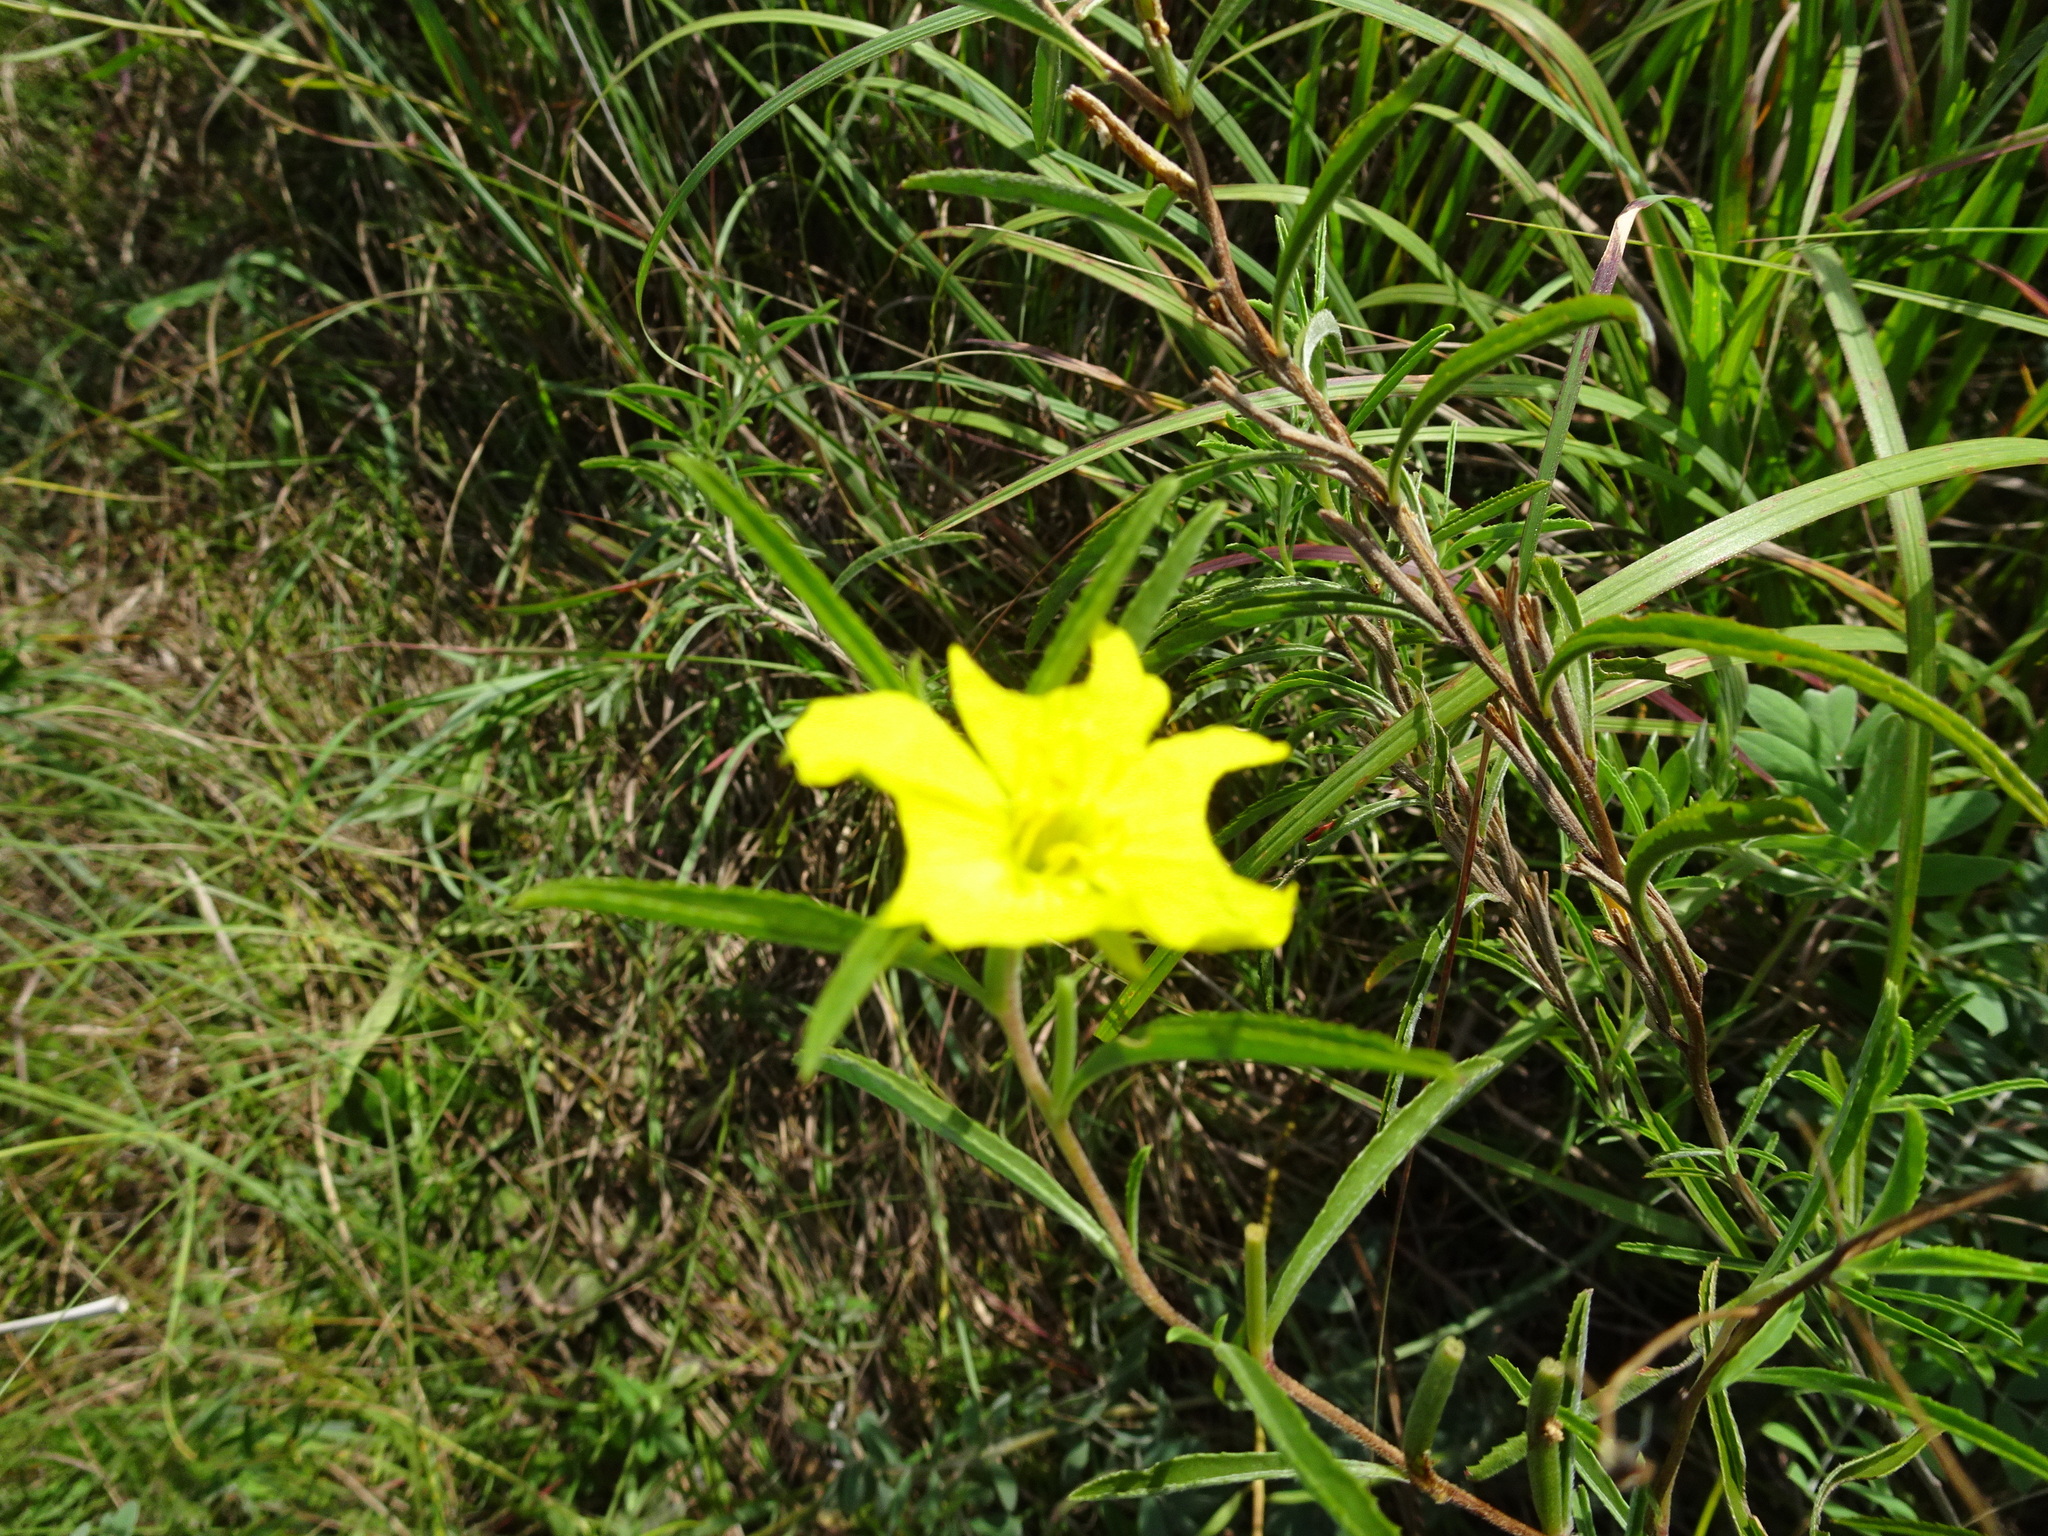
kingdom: Plantae
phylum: Tracheophyta
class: Magnoliopsida
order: Myrtales
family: Onagraceae
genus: Oenothera
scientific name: Oenothera serrulata
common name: Half-shrub calylophus
